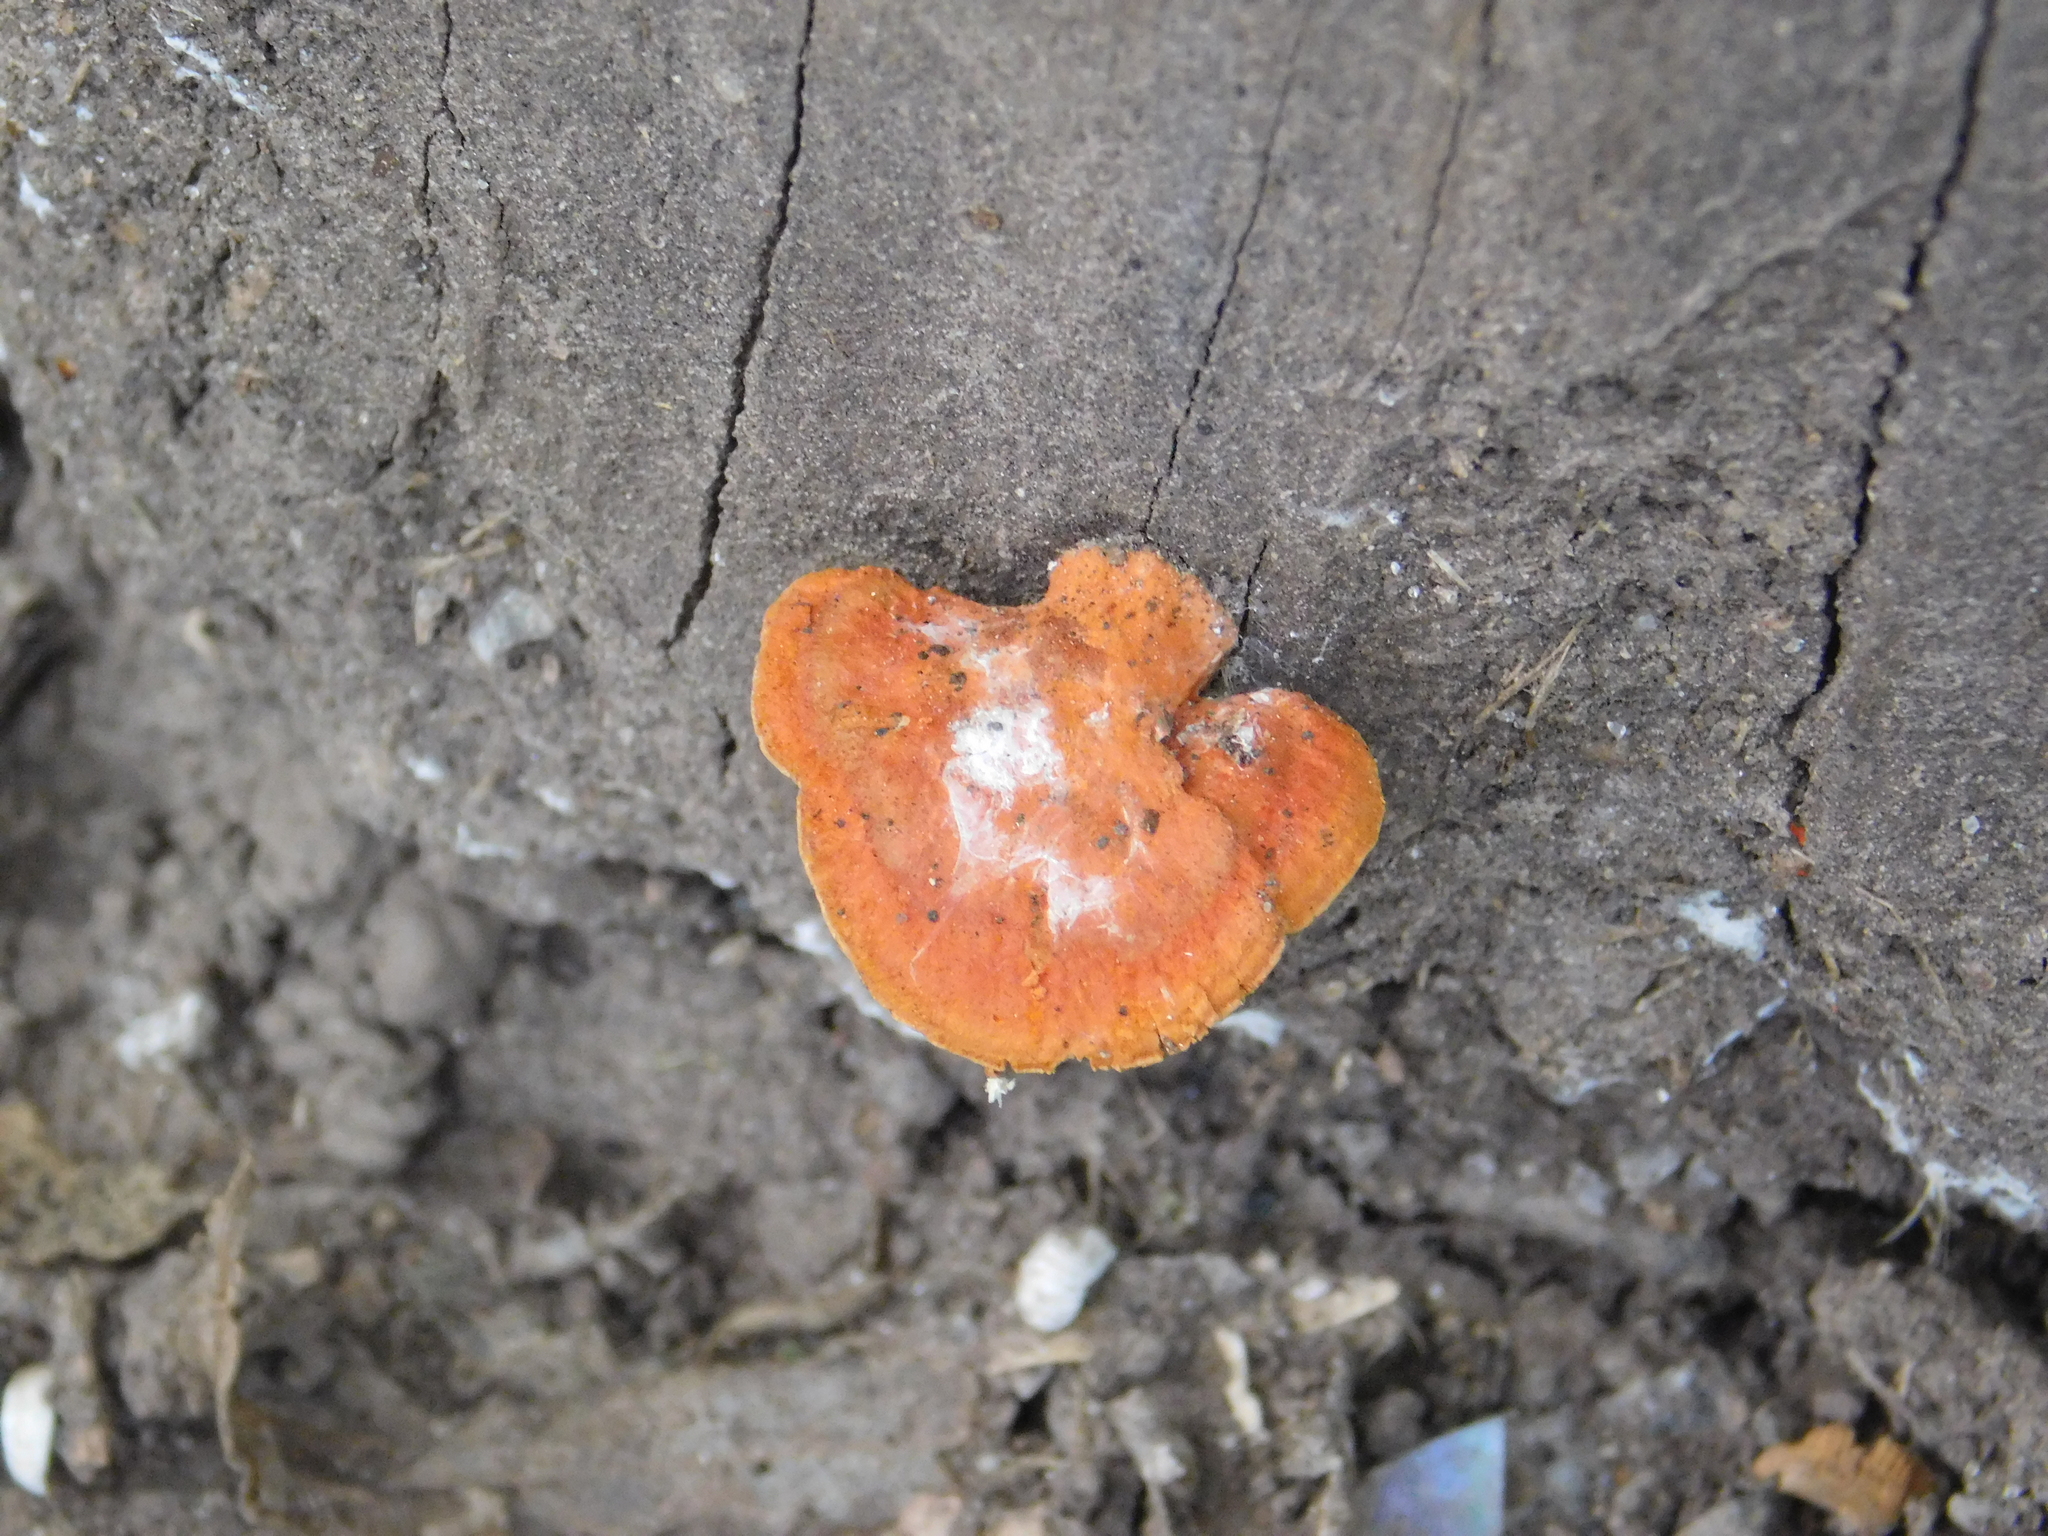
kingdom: Fungi
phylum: Basidiomycota
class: Agaricomycetes
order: Polyporales
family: Polyporaceae
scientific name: Polyporaceae
